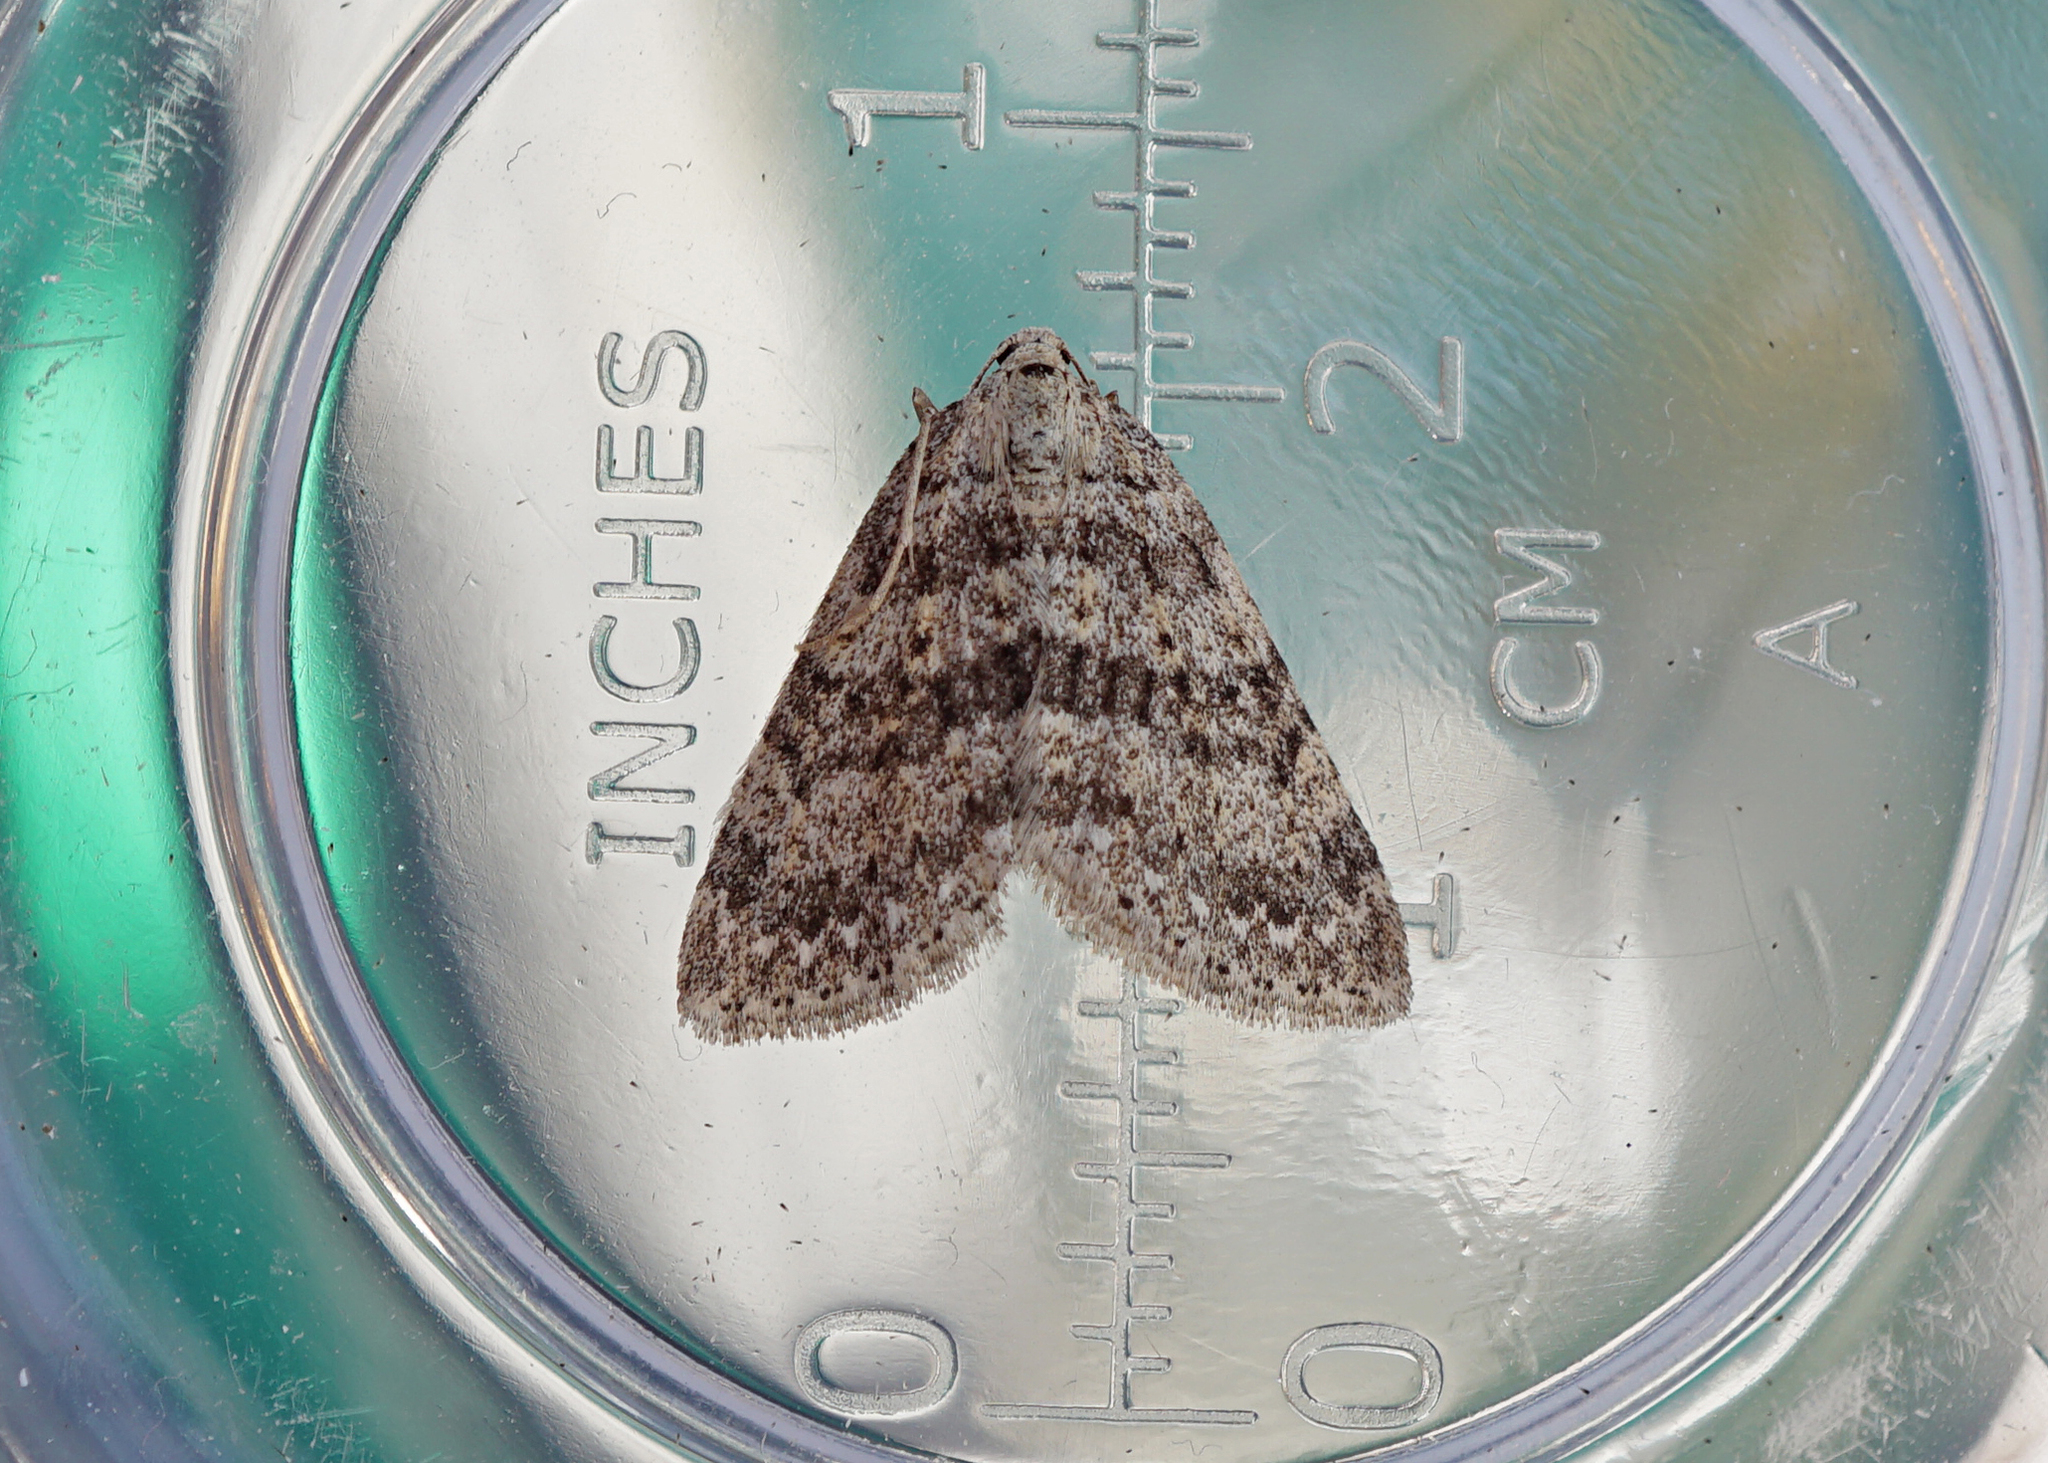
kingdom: Animalia
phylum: Arthropoda
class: Insecta
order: Lepidoptera
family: Geometridae
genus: Colostygia
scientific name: Colostygia multistrigaria
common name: Mottled grey
